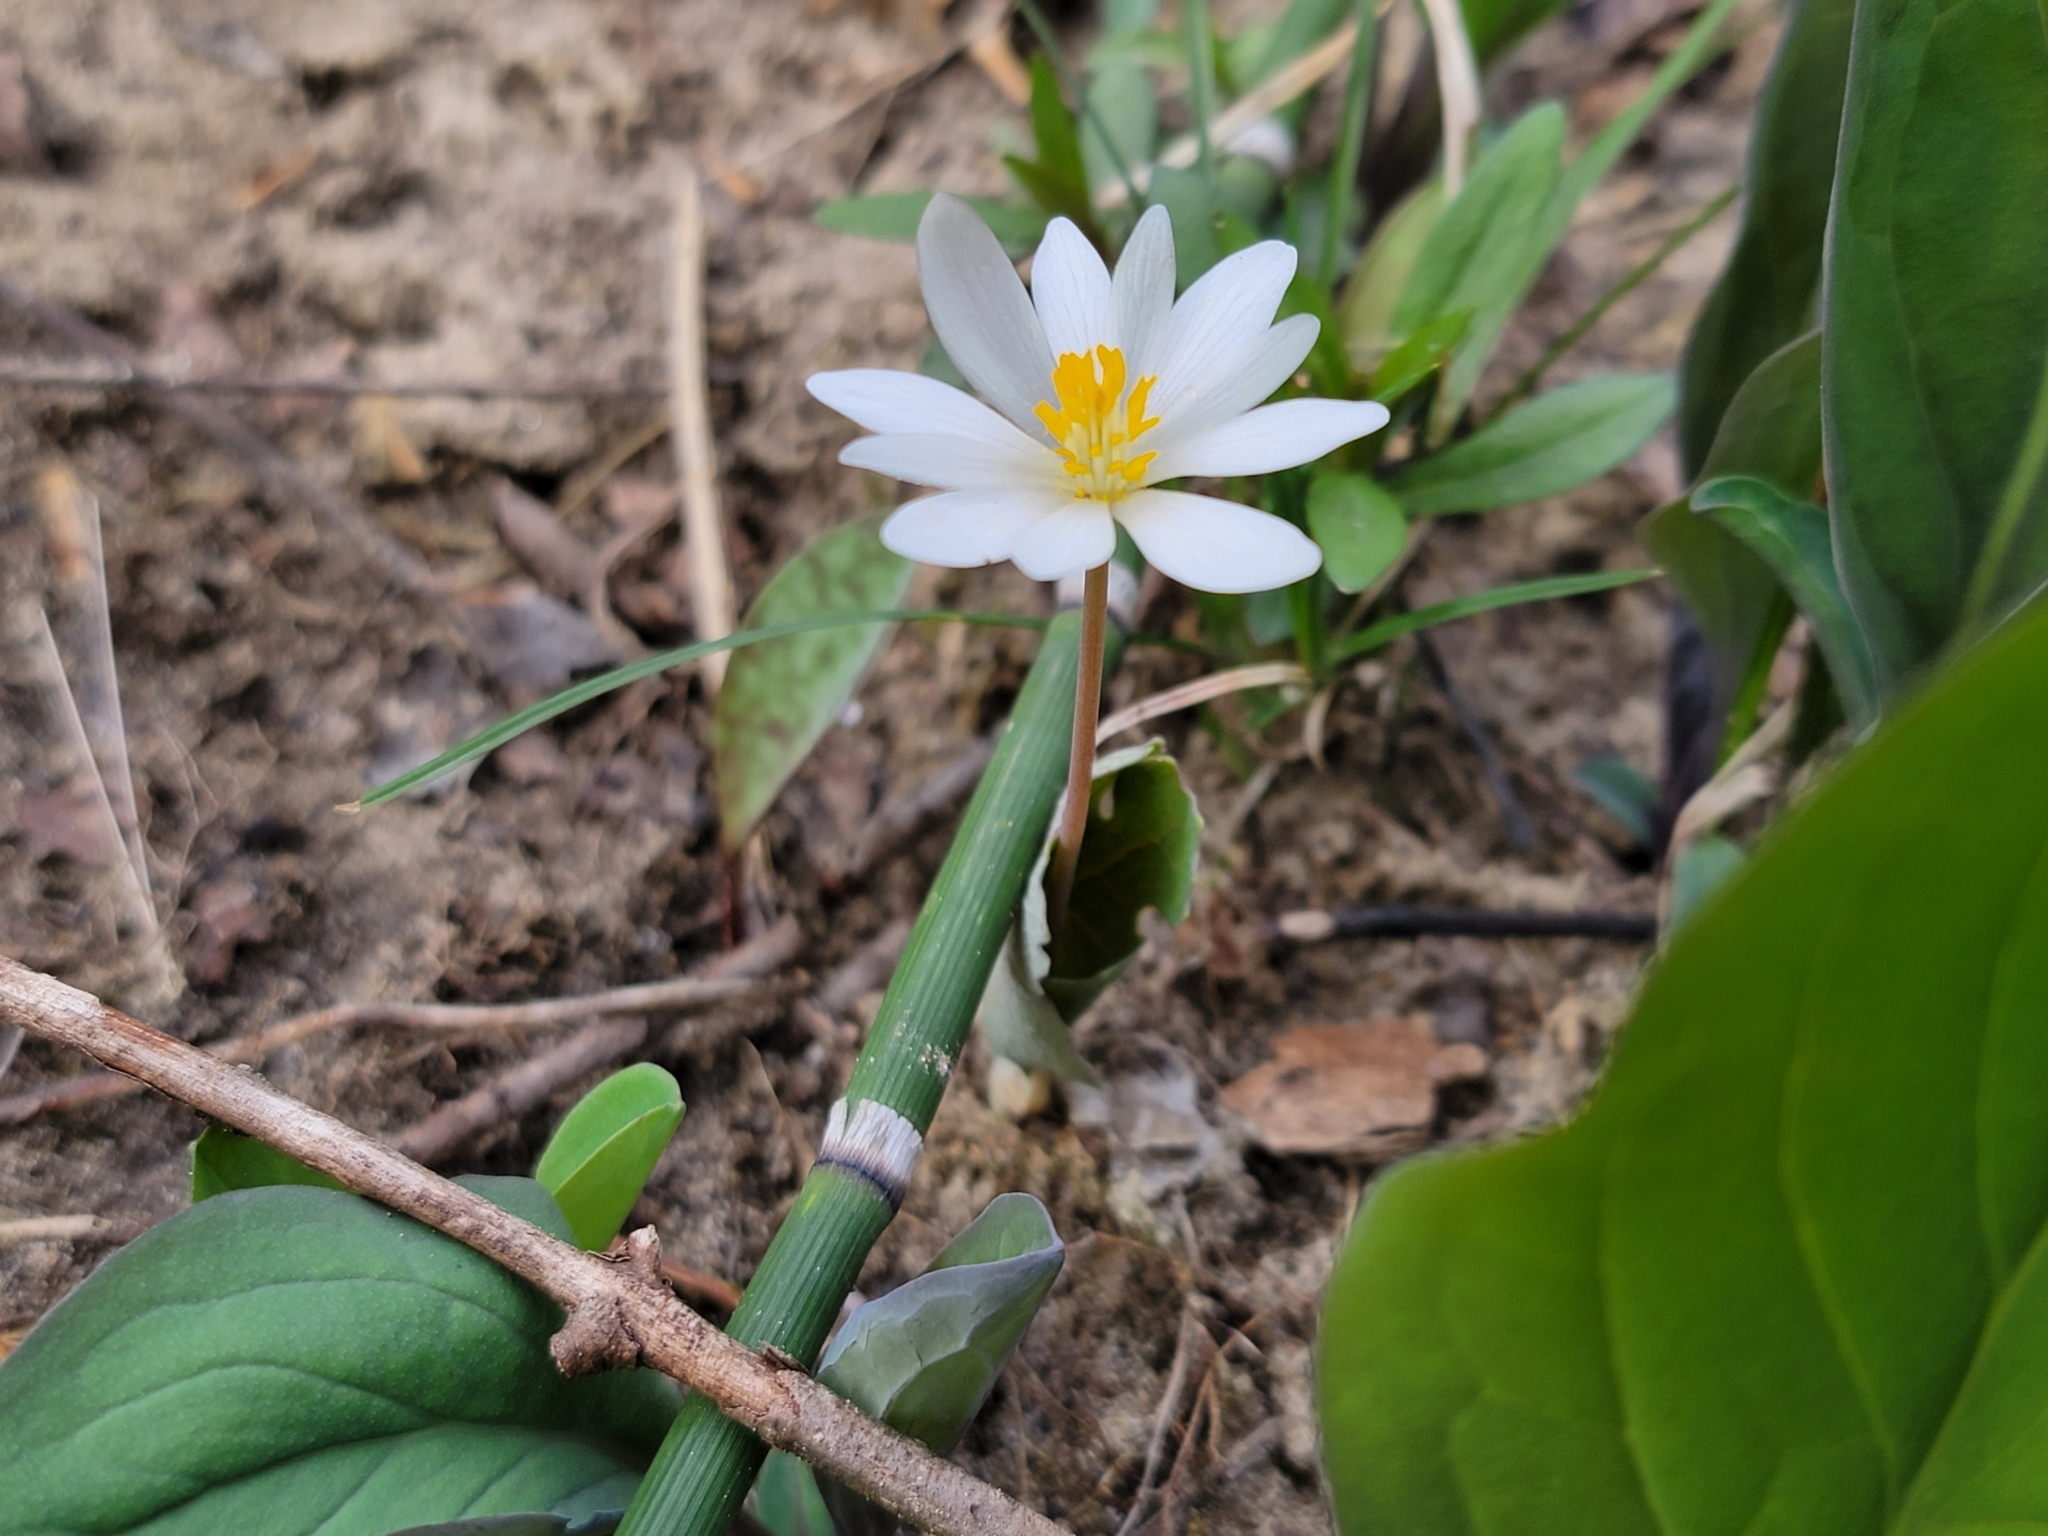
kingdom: Plantae
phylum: Tracheophyta
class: Magnoliopsida
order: Ranunculales
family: Papaveraceae
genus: Sanguinaria
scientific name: Sanguinaria canadensis
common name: Bloodroot
